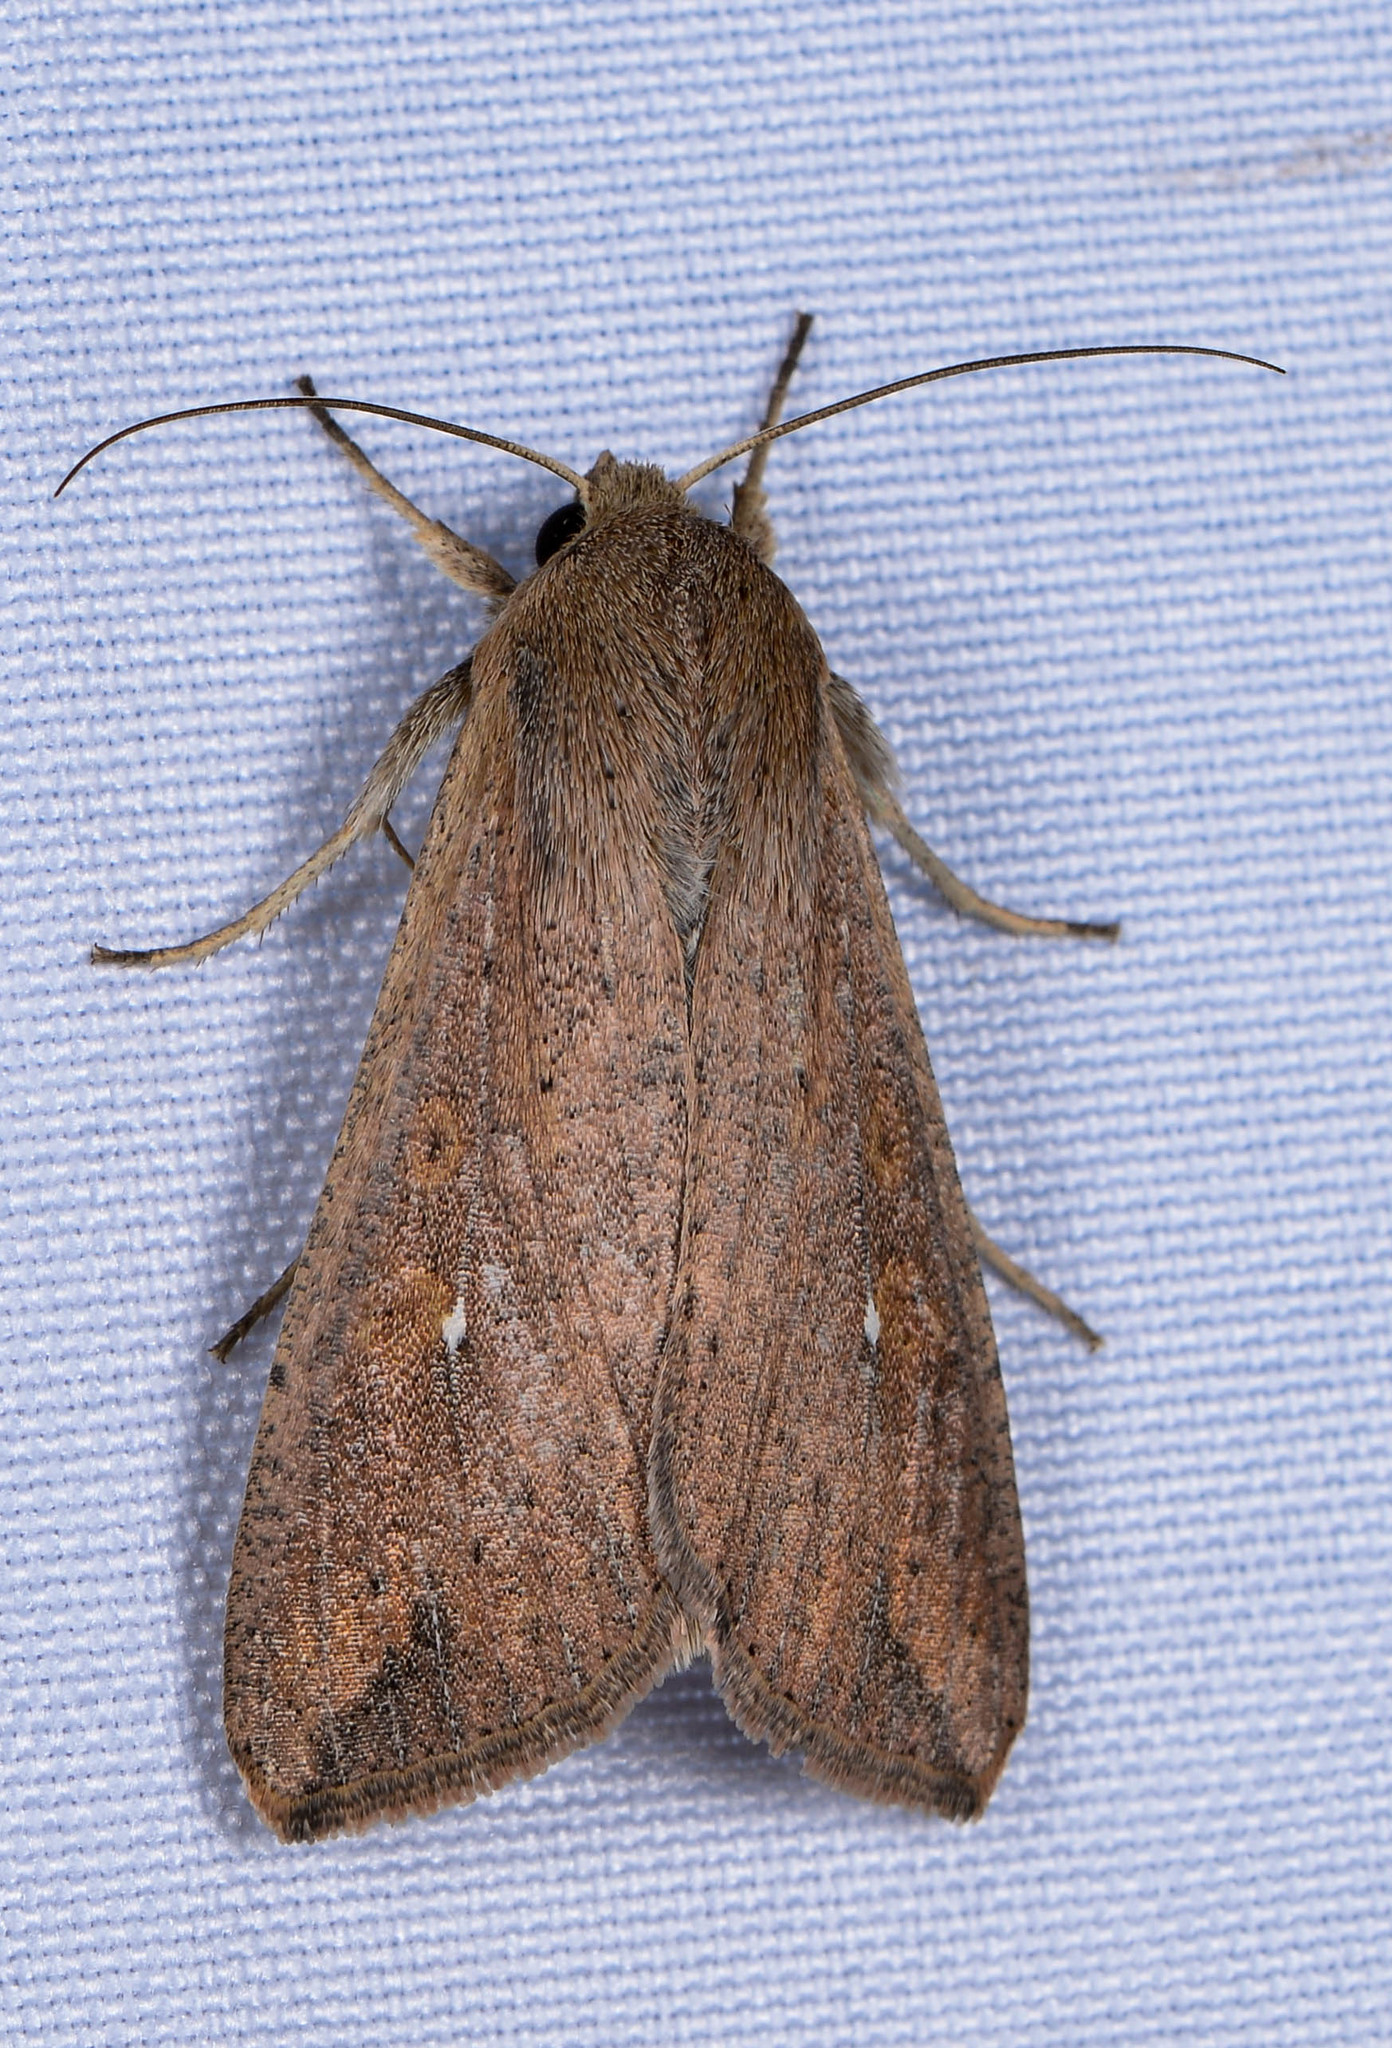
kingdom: Animalia
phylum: Arthropoda
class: Insecta
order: Lepidoptera
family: Noctuidae
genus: Mythimna
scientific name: Mythimna unipuncta
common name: White-speck
